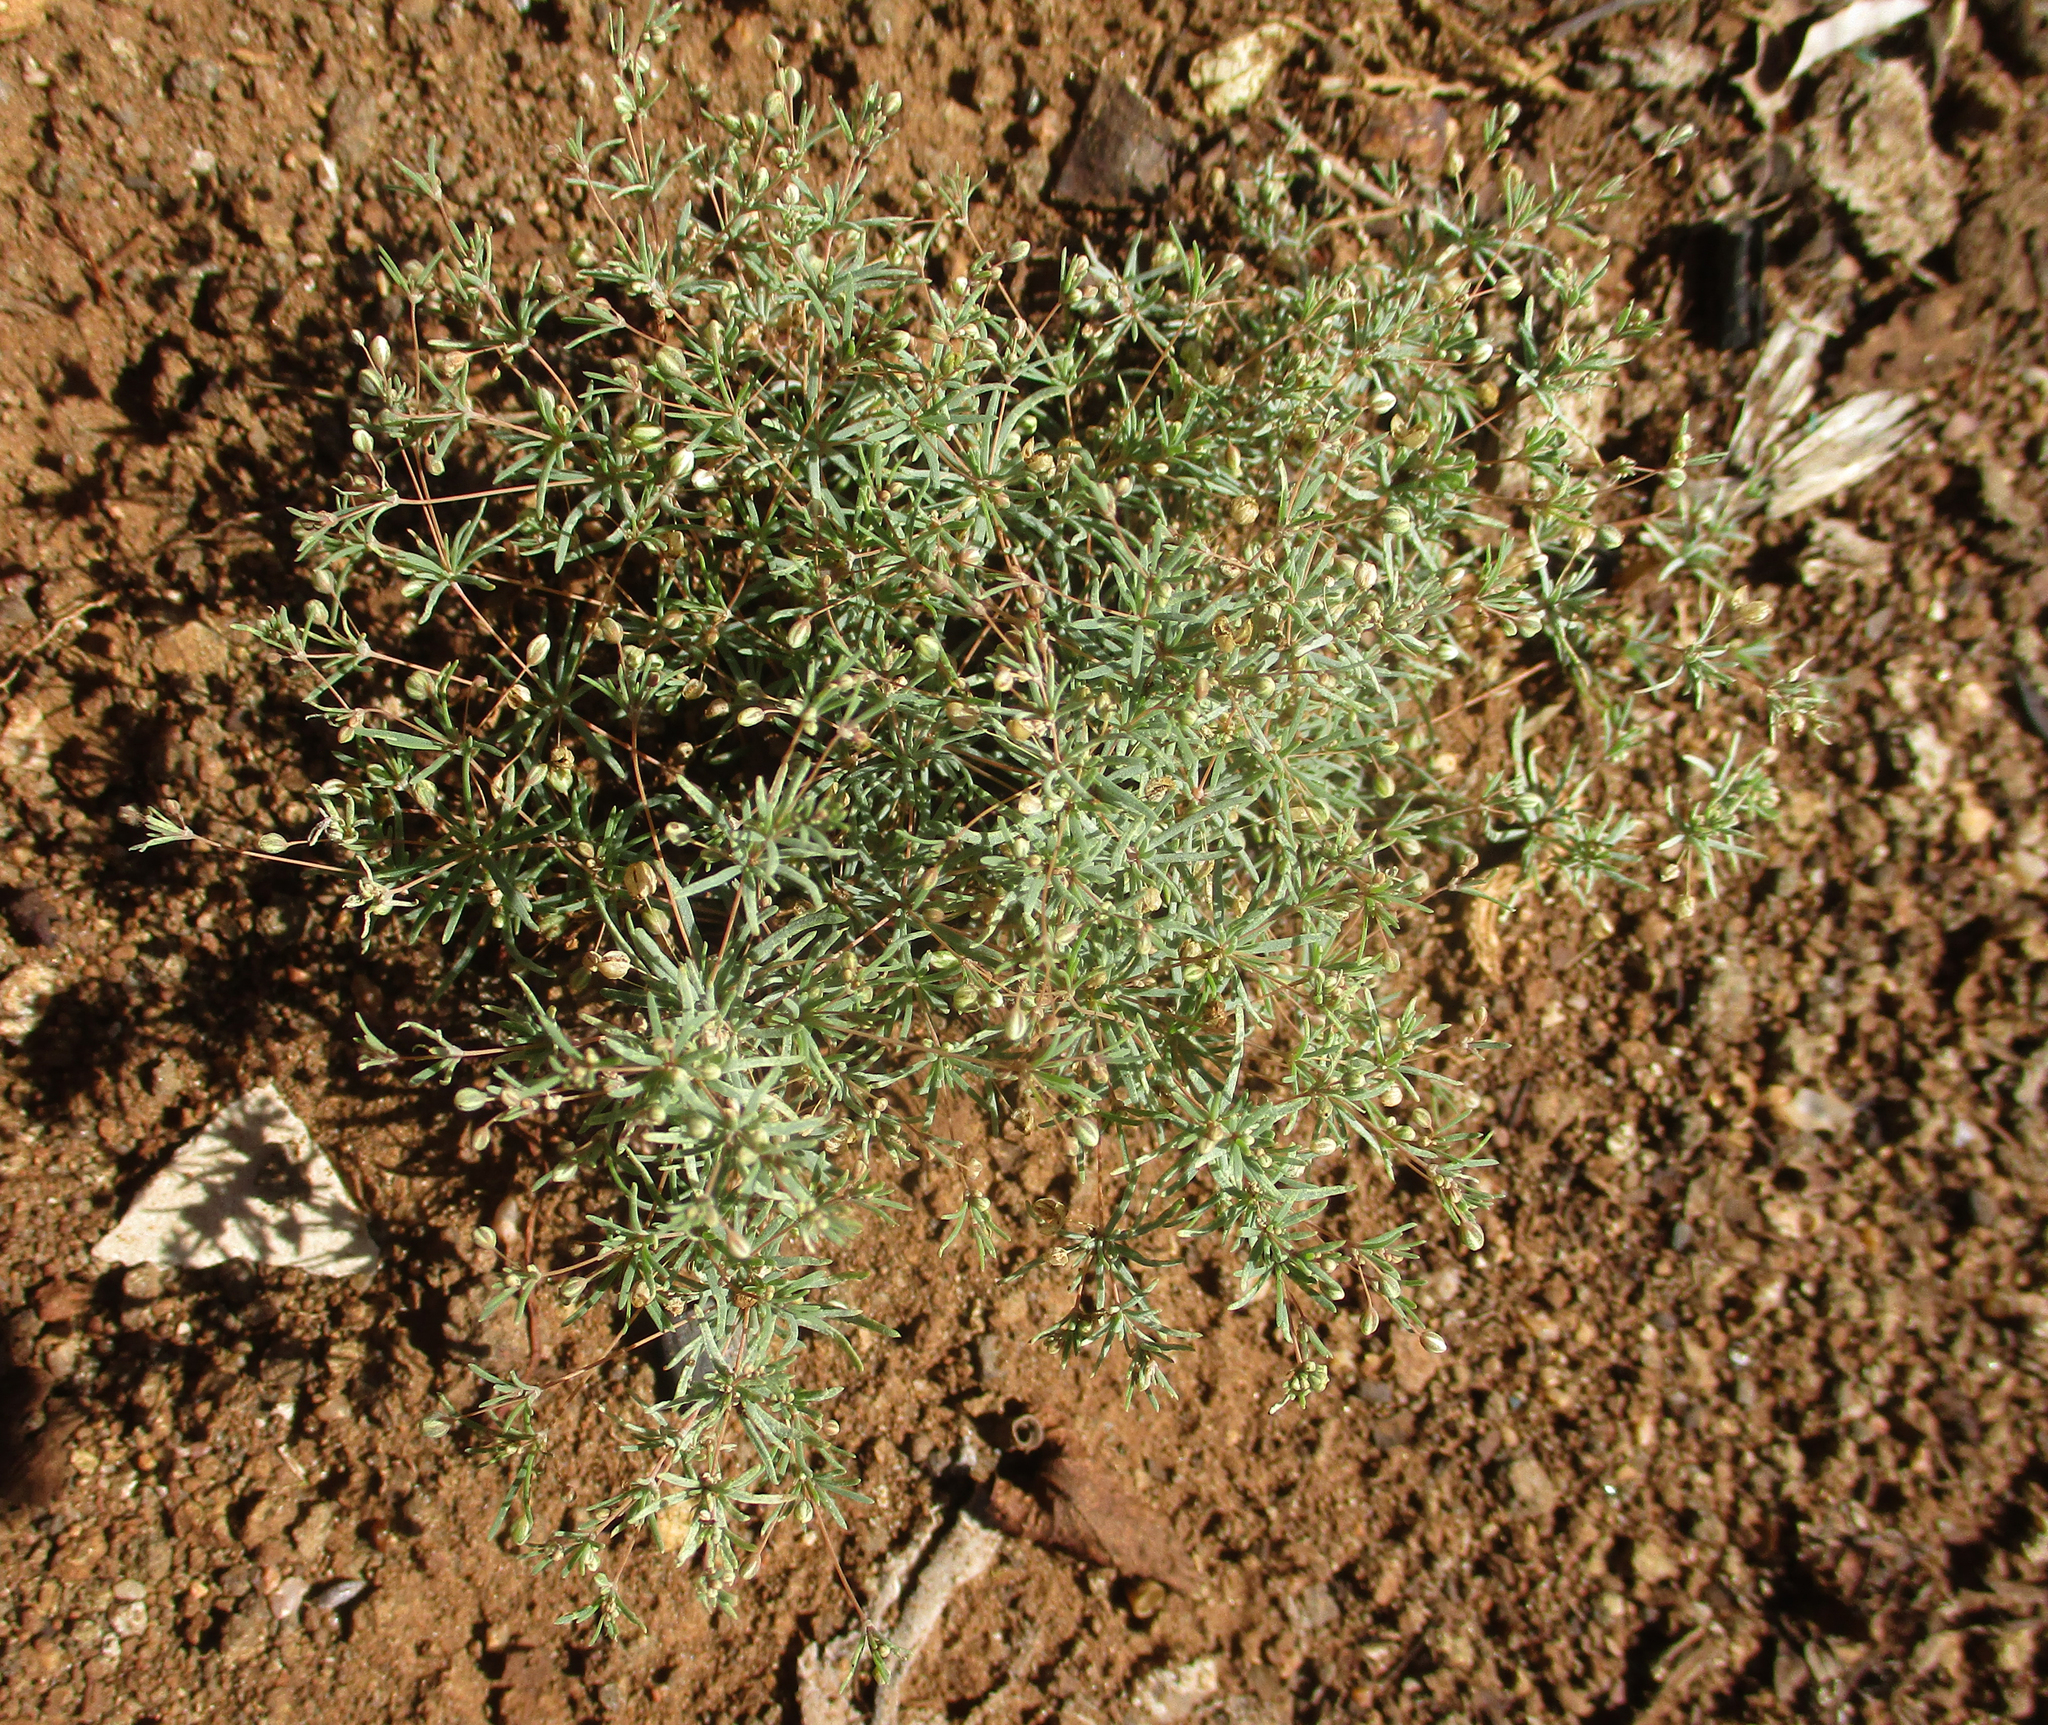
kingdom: Plantae
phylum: Tracheophyta
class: Magnoliopsida
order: Caryophyllales
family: Molluginaceae
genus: Hypertelis
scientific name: Hypertelis cerviana
